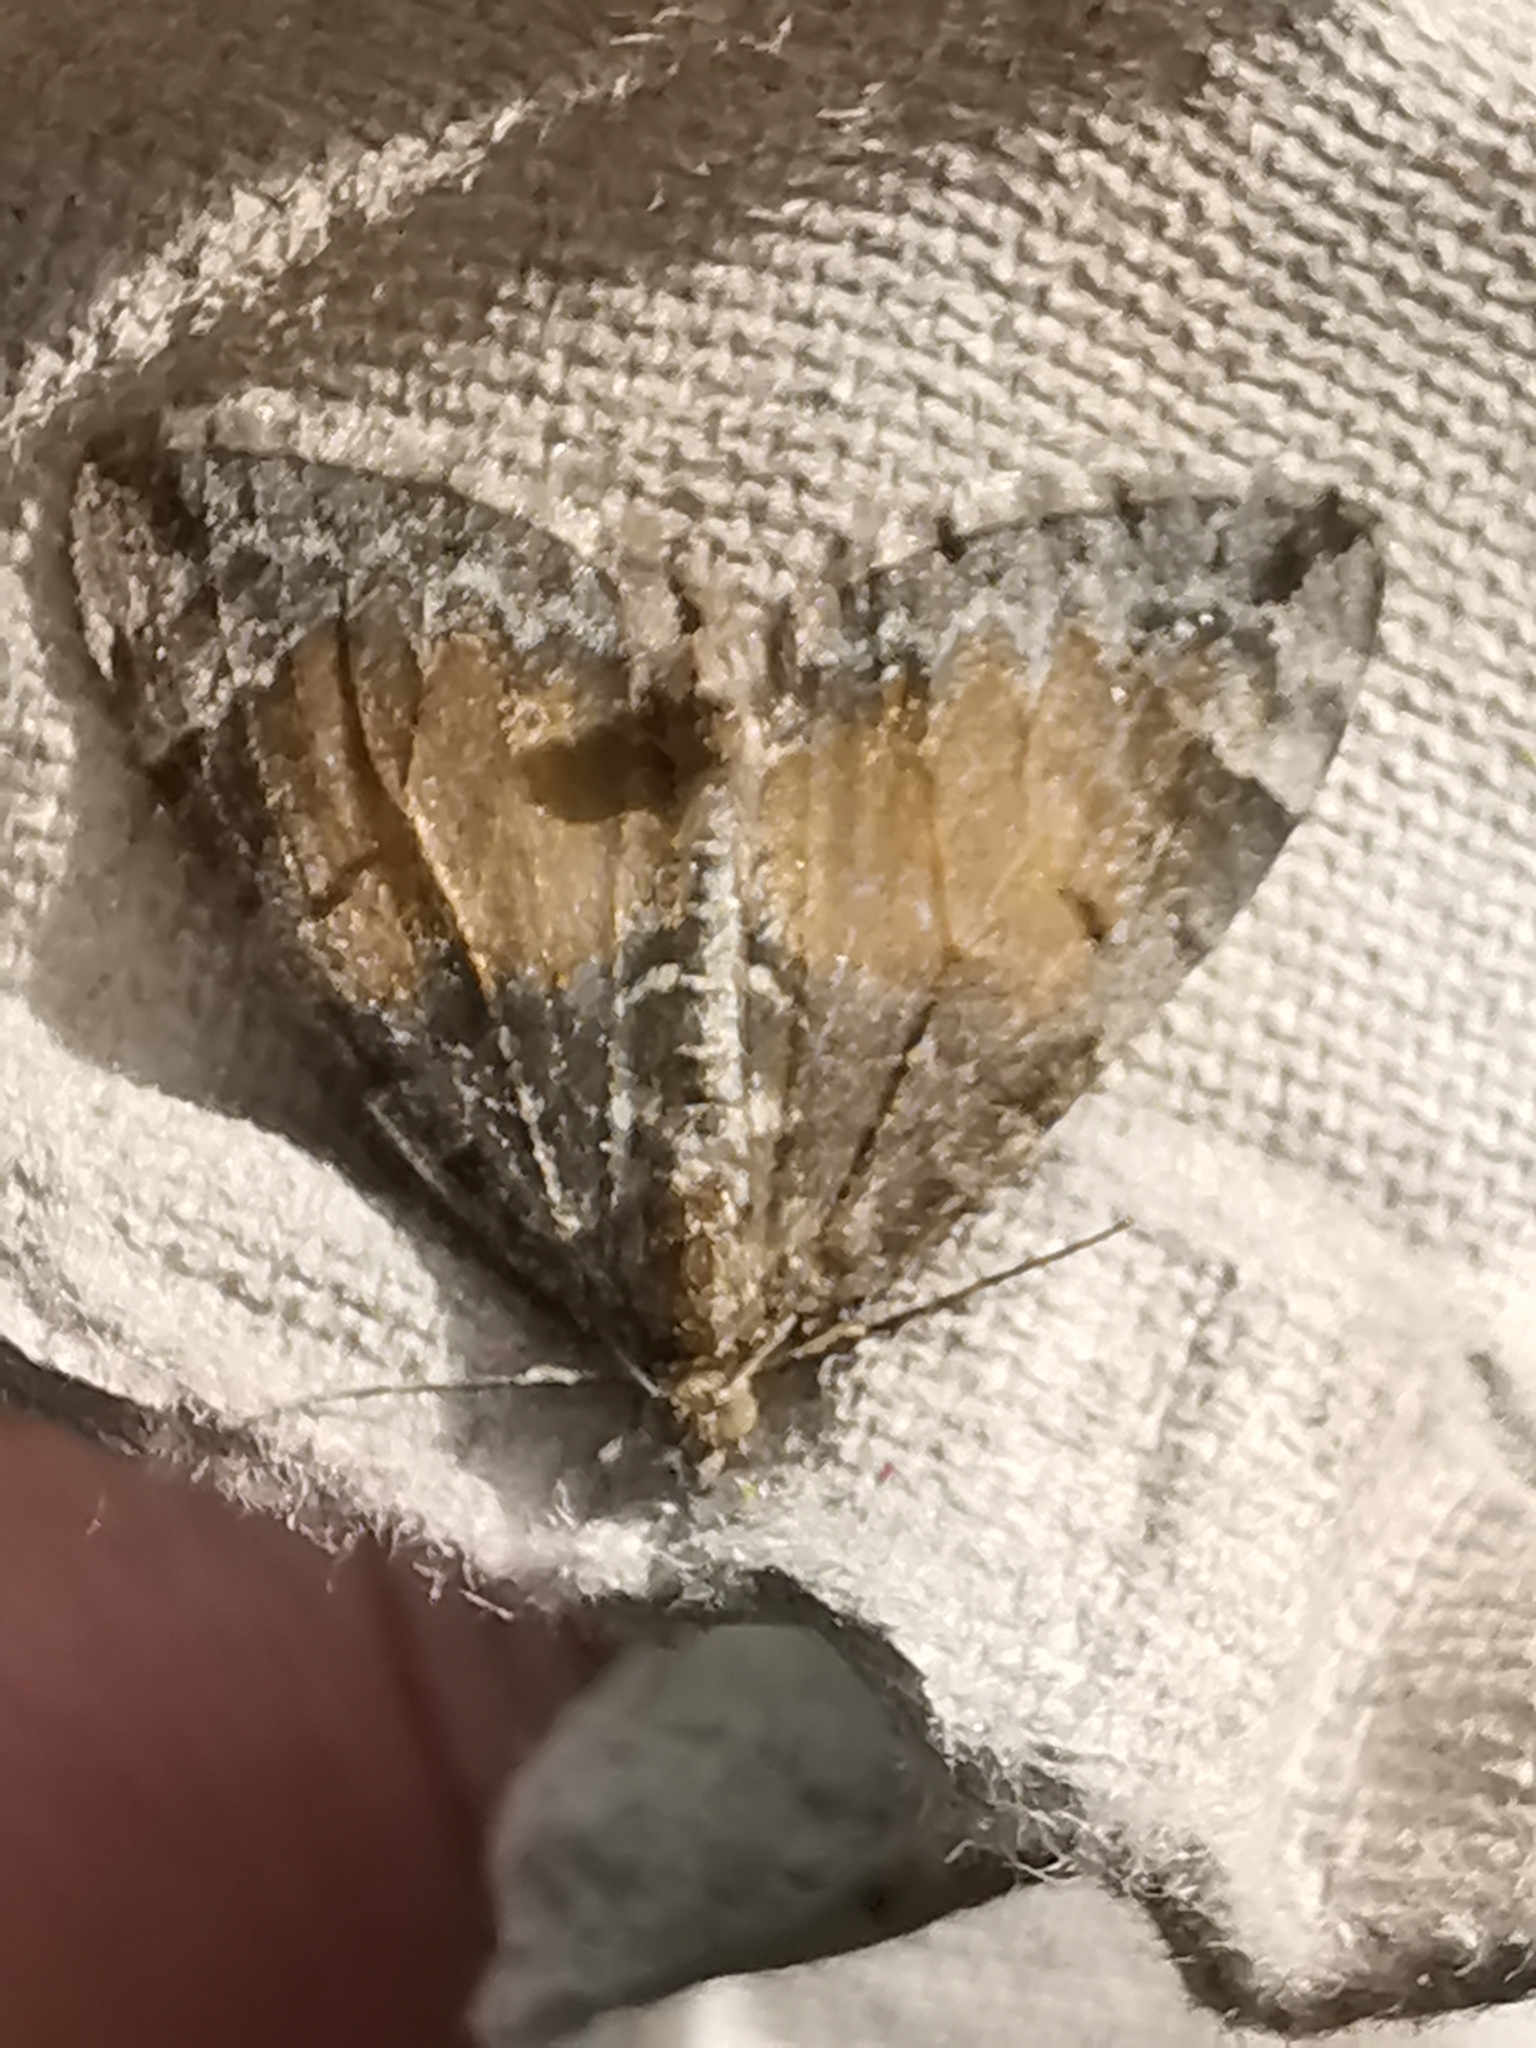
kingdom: Animalia
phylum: Arthropoda
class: Insecta
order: Lepidoptera
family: Geometridae
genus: Dysstroma
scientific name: Dysstroma truncata
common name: Common marbled carpet
